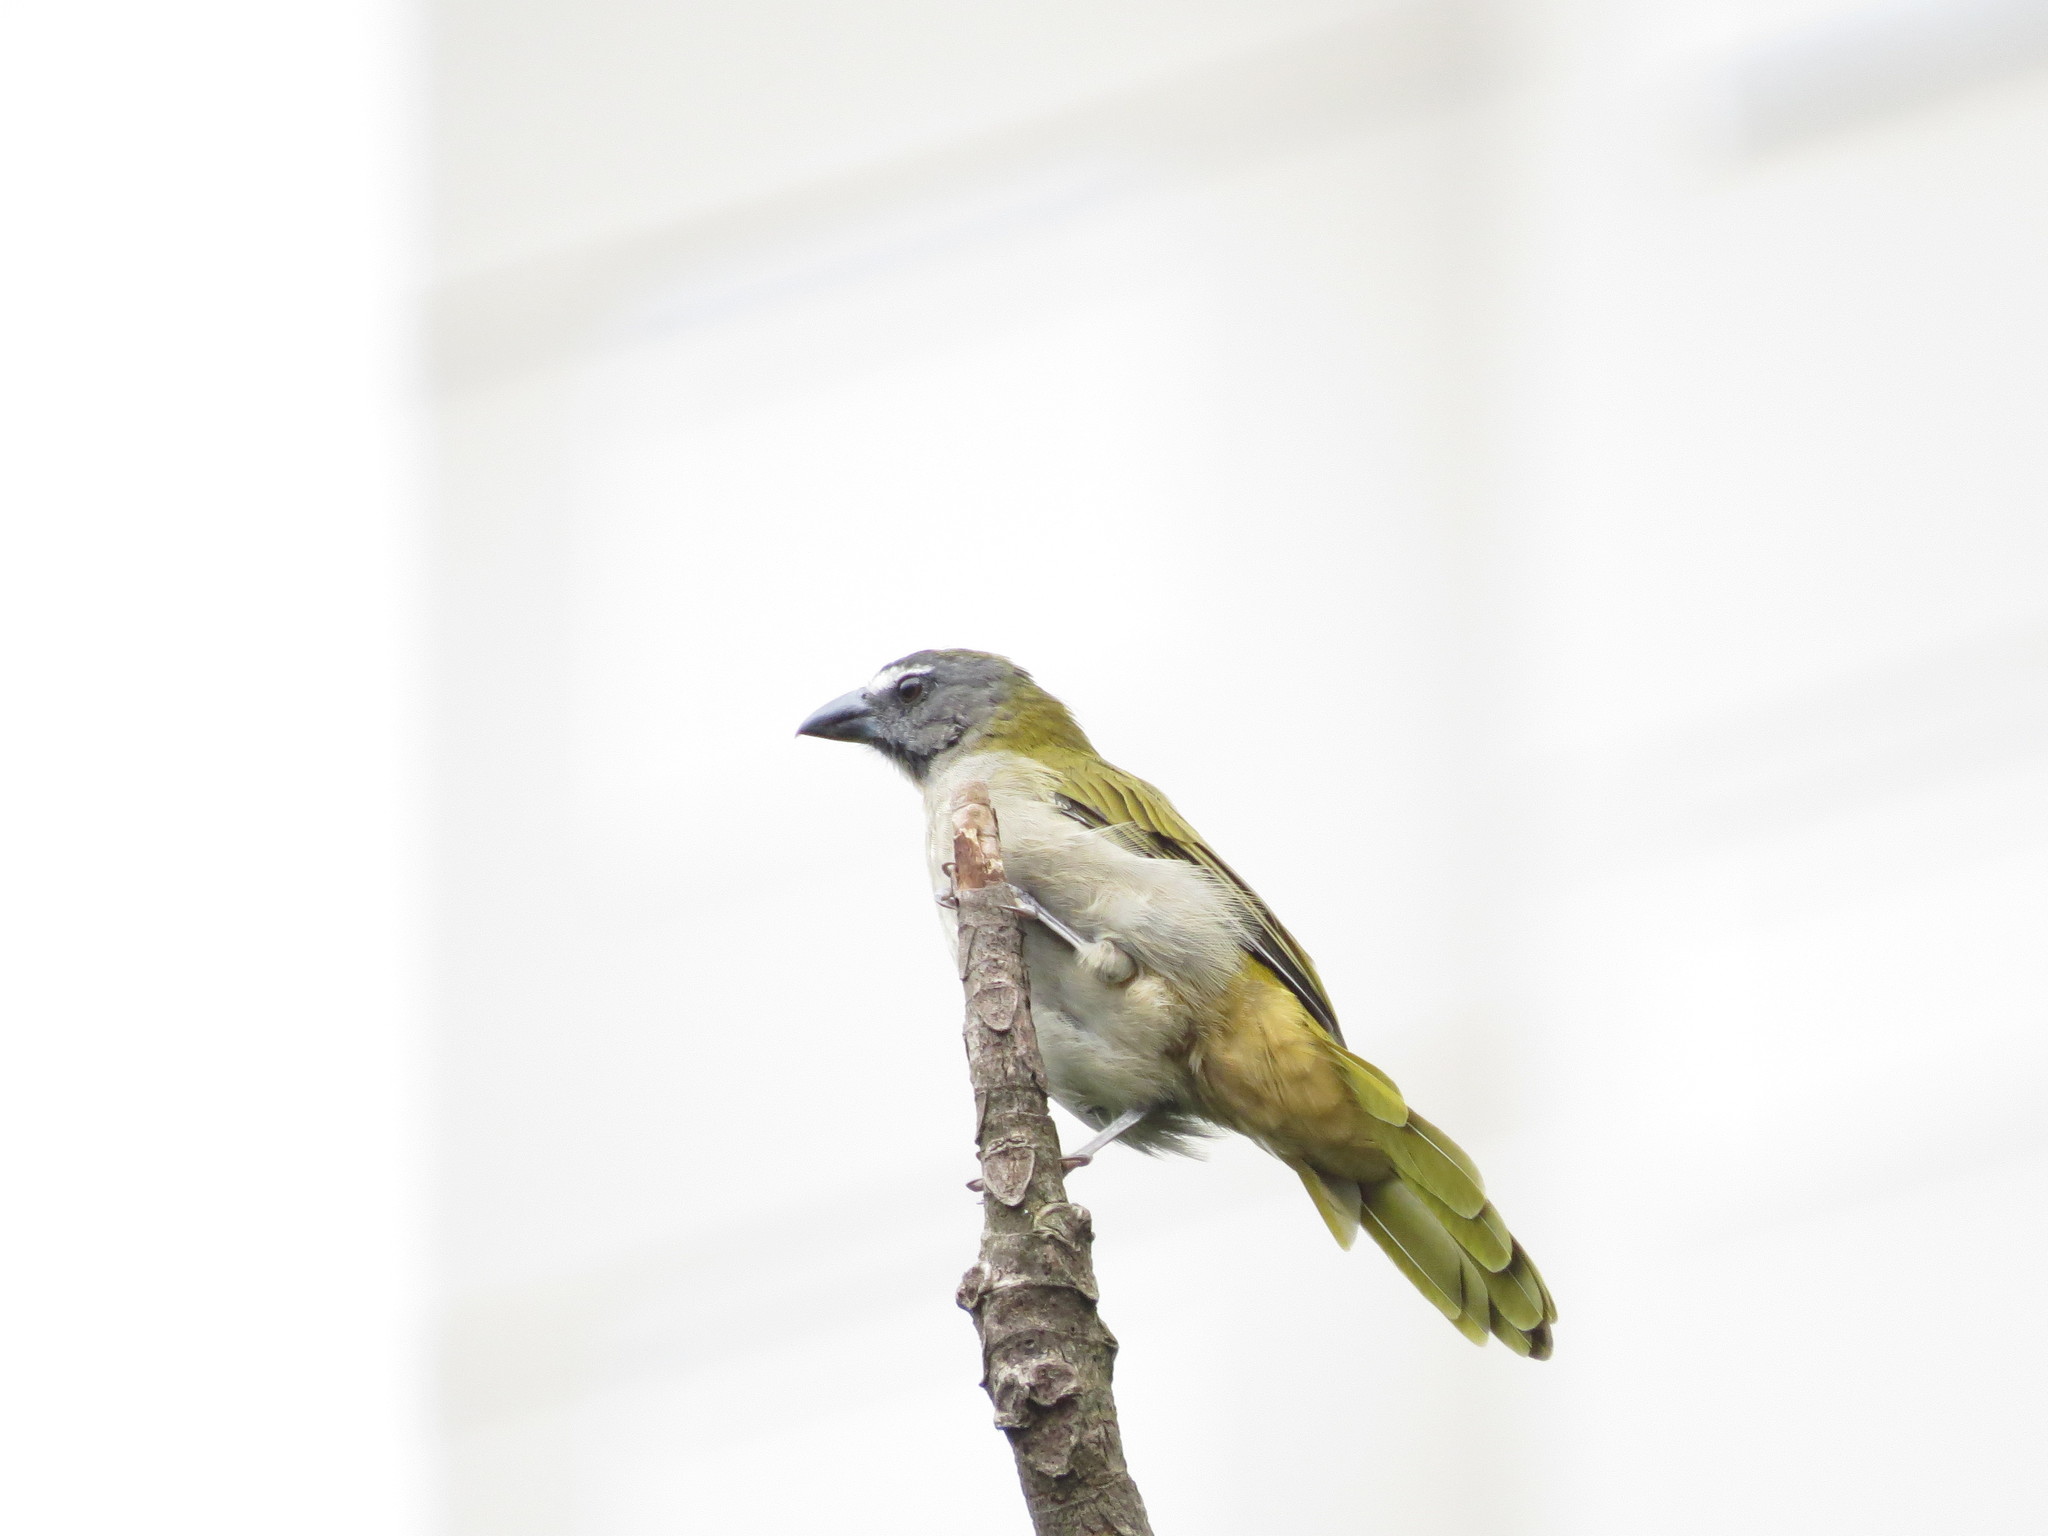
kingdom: Animalia
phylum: Chordata
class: Aves
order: Passeriformes
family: Thraupidae
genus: Saltator
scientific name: Saltator maximus
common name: Buff-throated saltator
